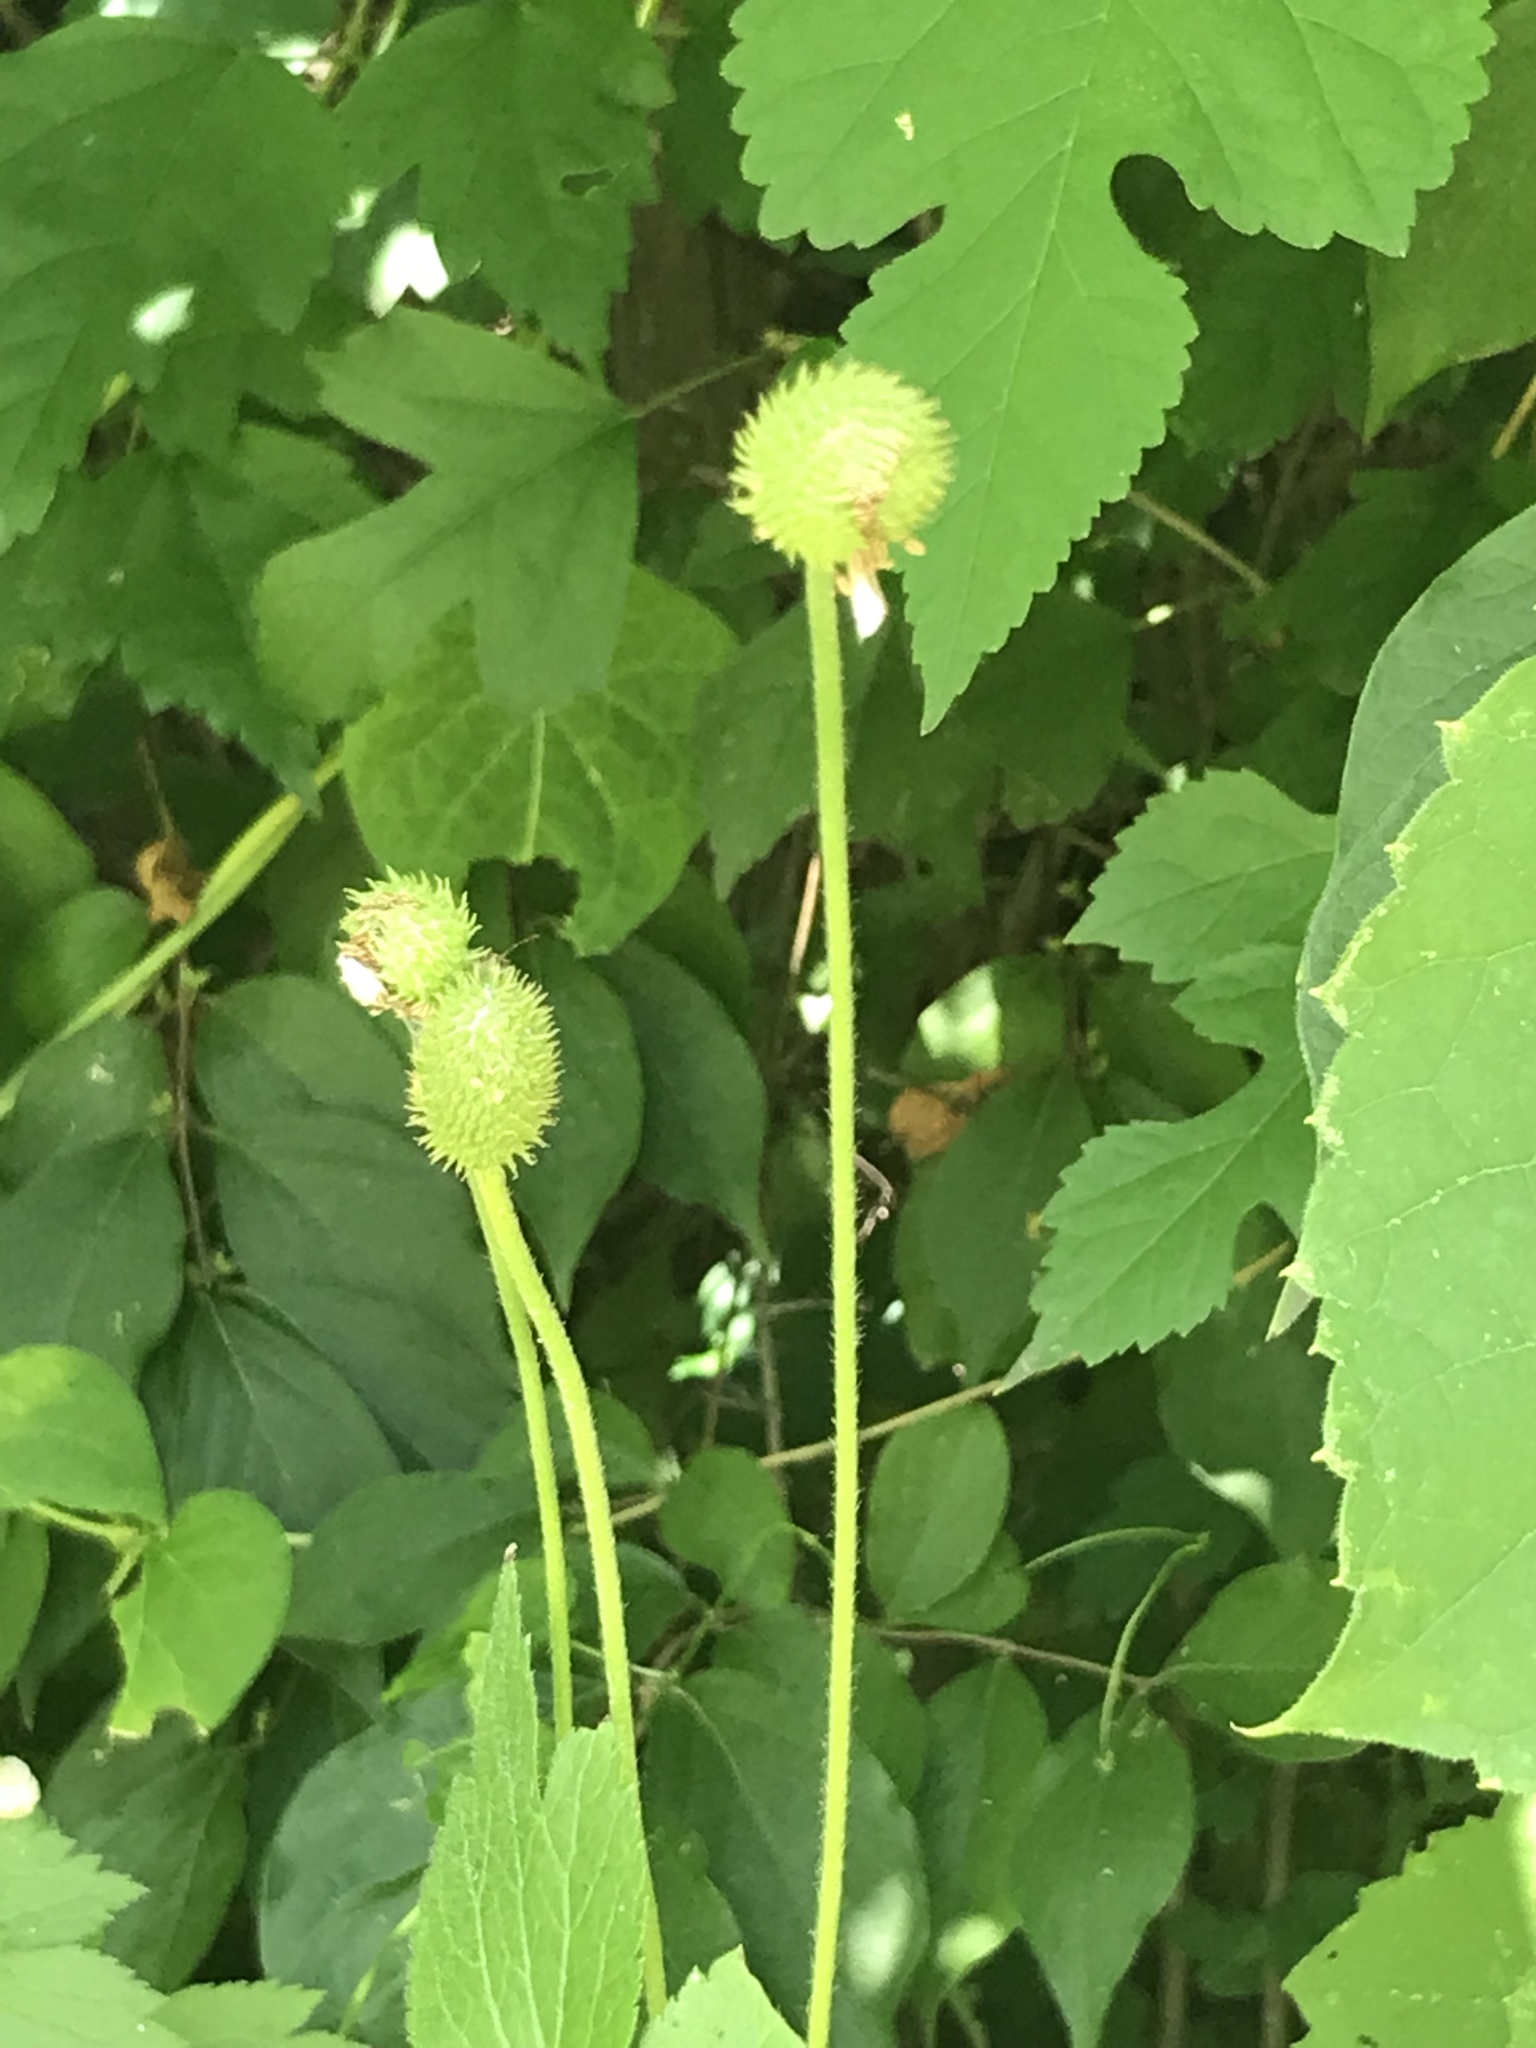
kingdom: Plantae
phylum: Tracheophyta
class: Magnoliopsida
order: Ranunculales
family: Ranunculaceae
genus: Anemone
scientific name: Anemone virginiana
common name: Tall anemone
